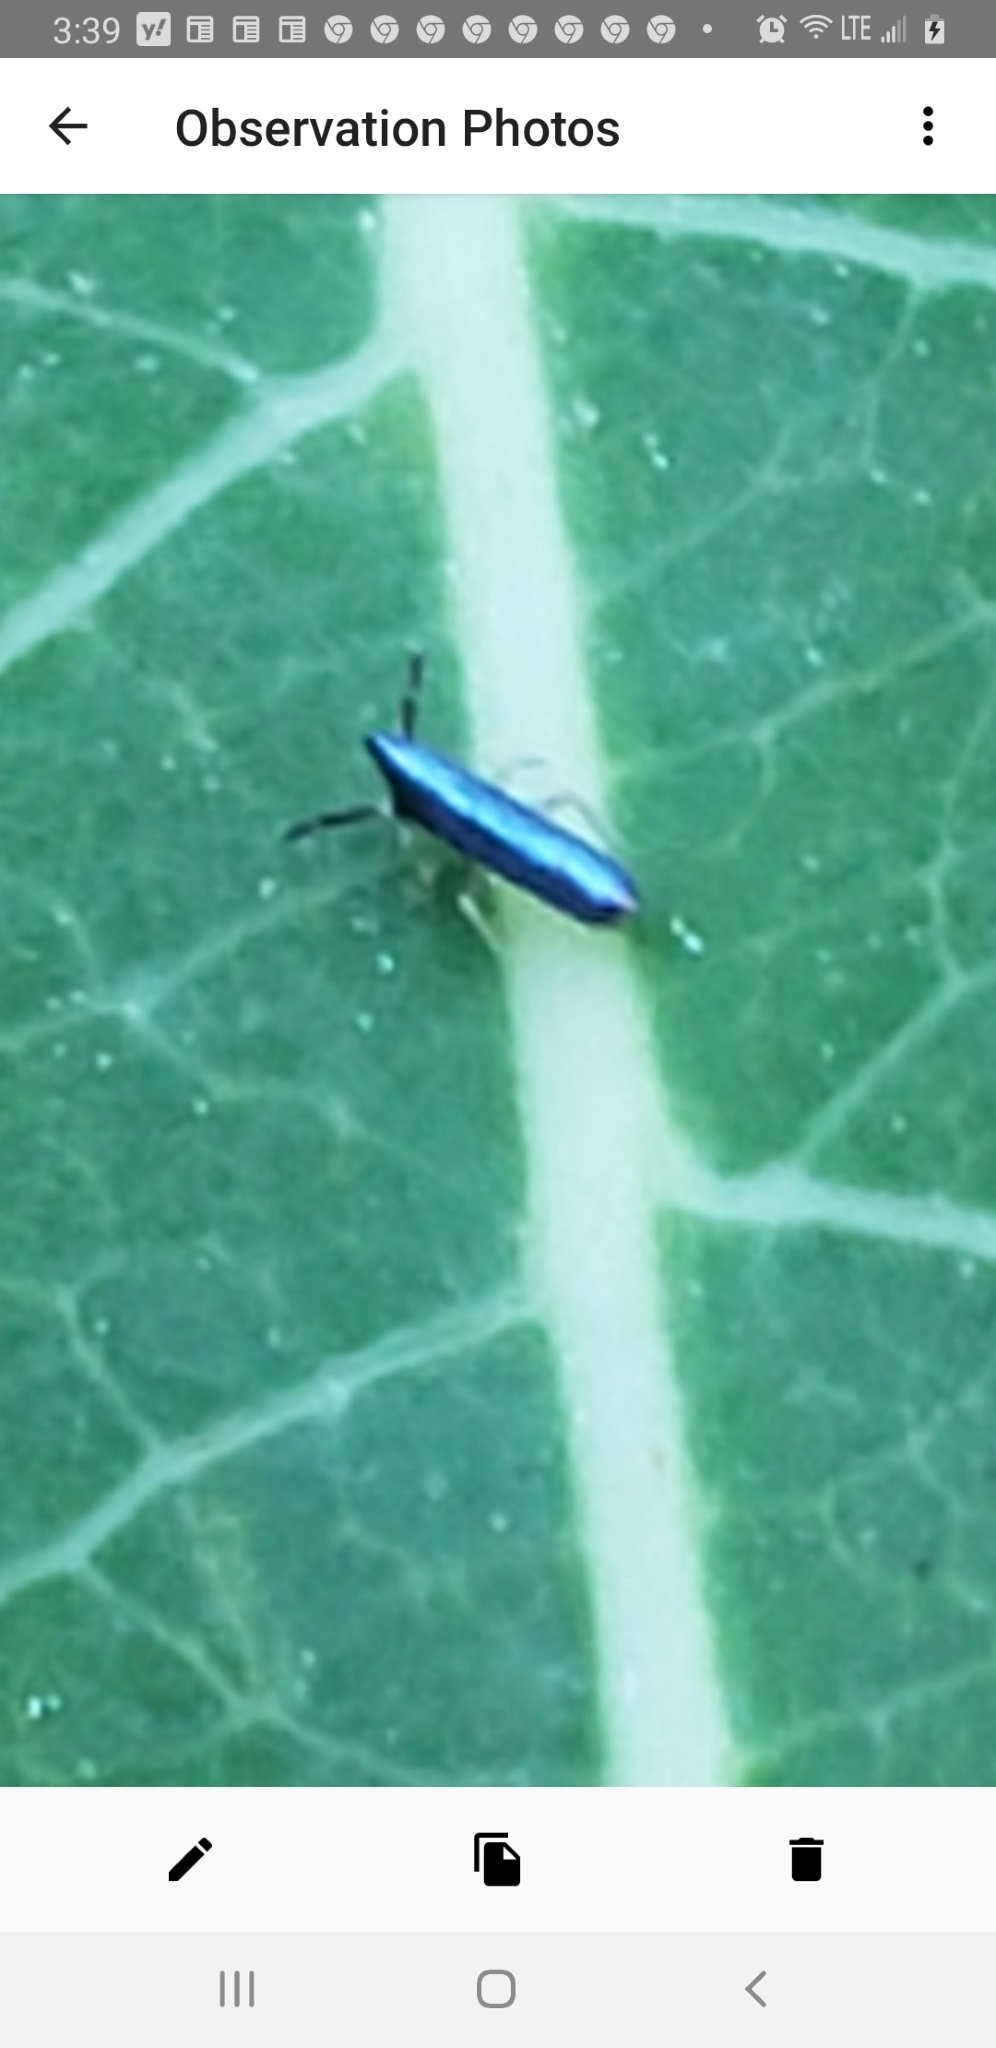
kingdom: Animalia
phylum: Arthropoda
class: Collembola
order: Entomobryomorpha
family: Entomobryidae
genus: Lepidocyrtus
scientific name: Lepidocyrtus paradoxus
